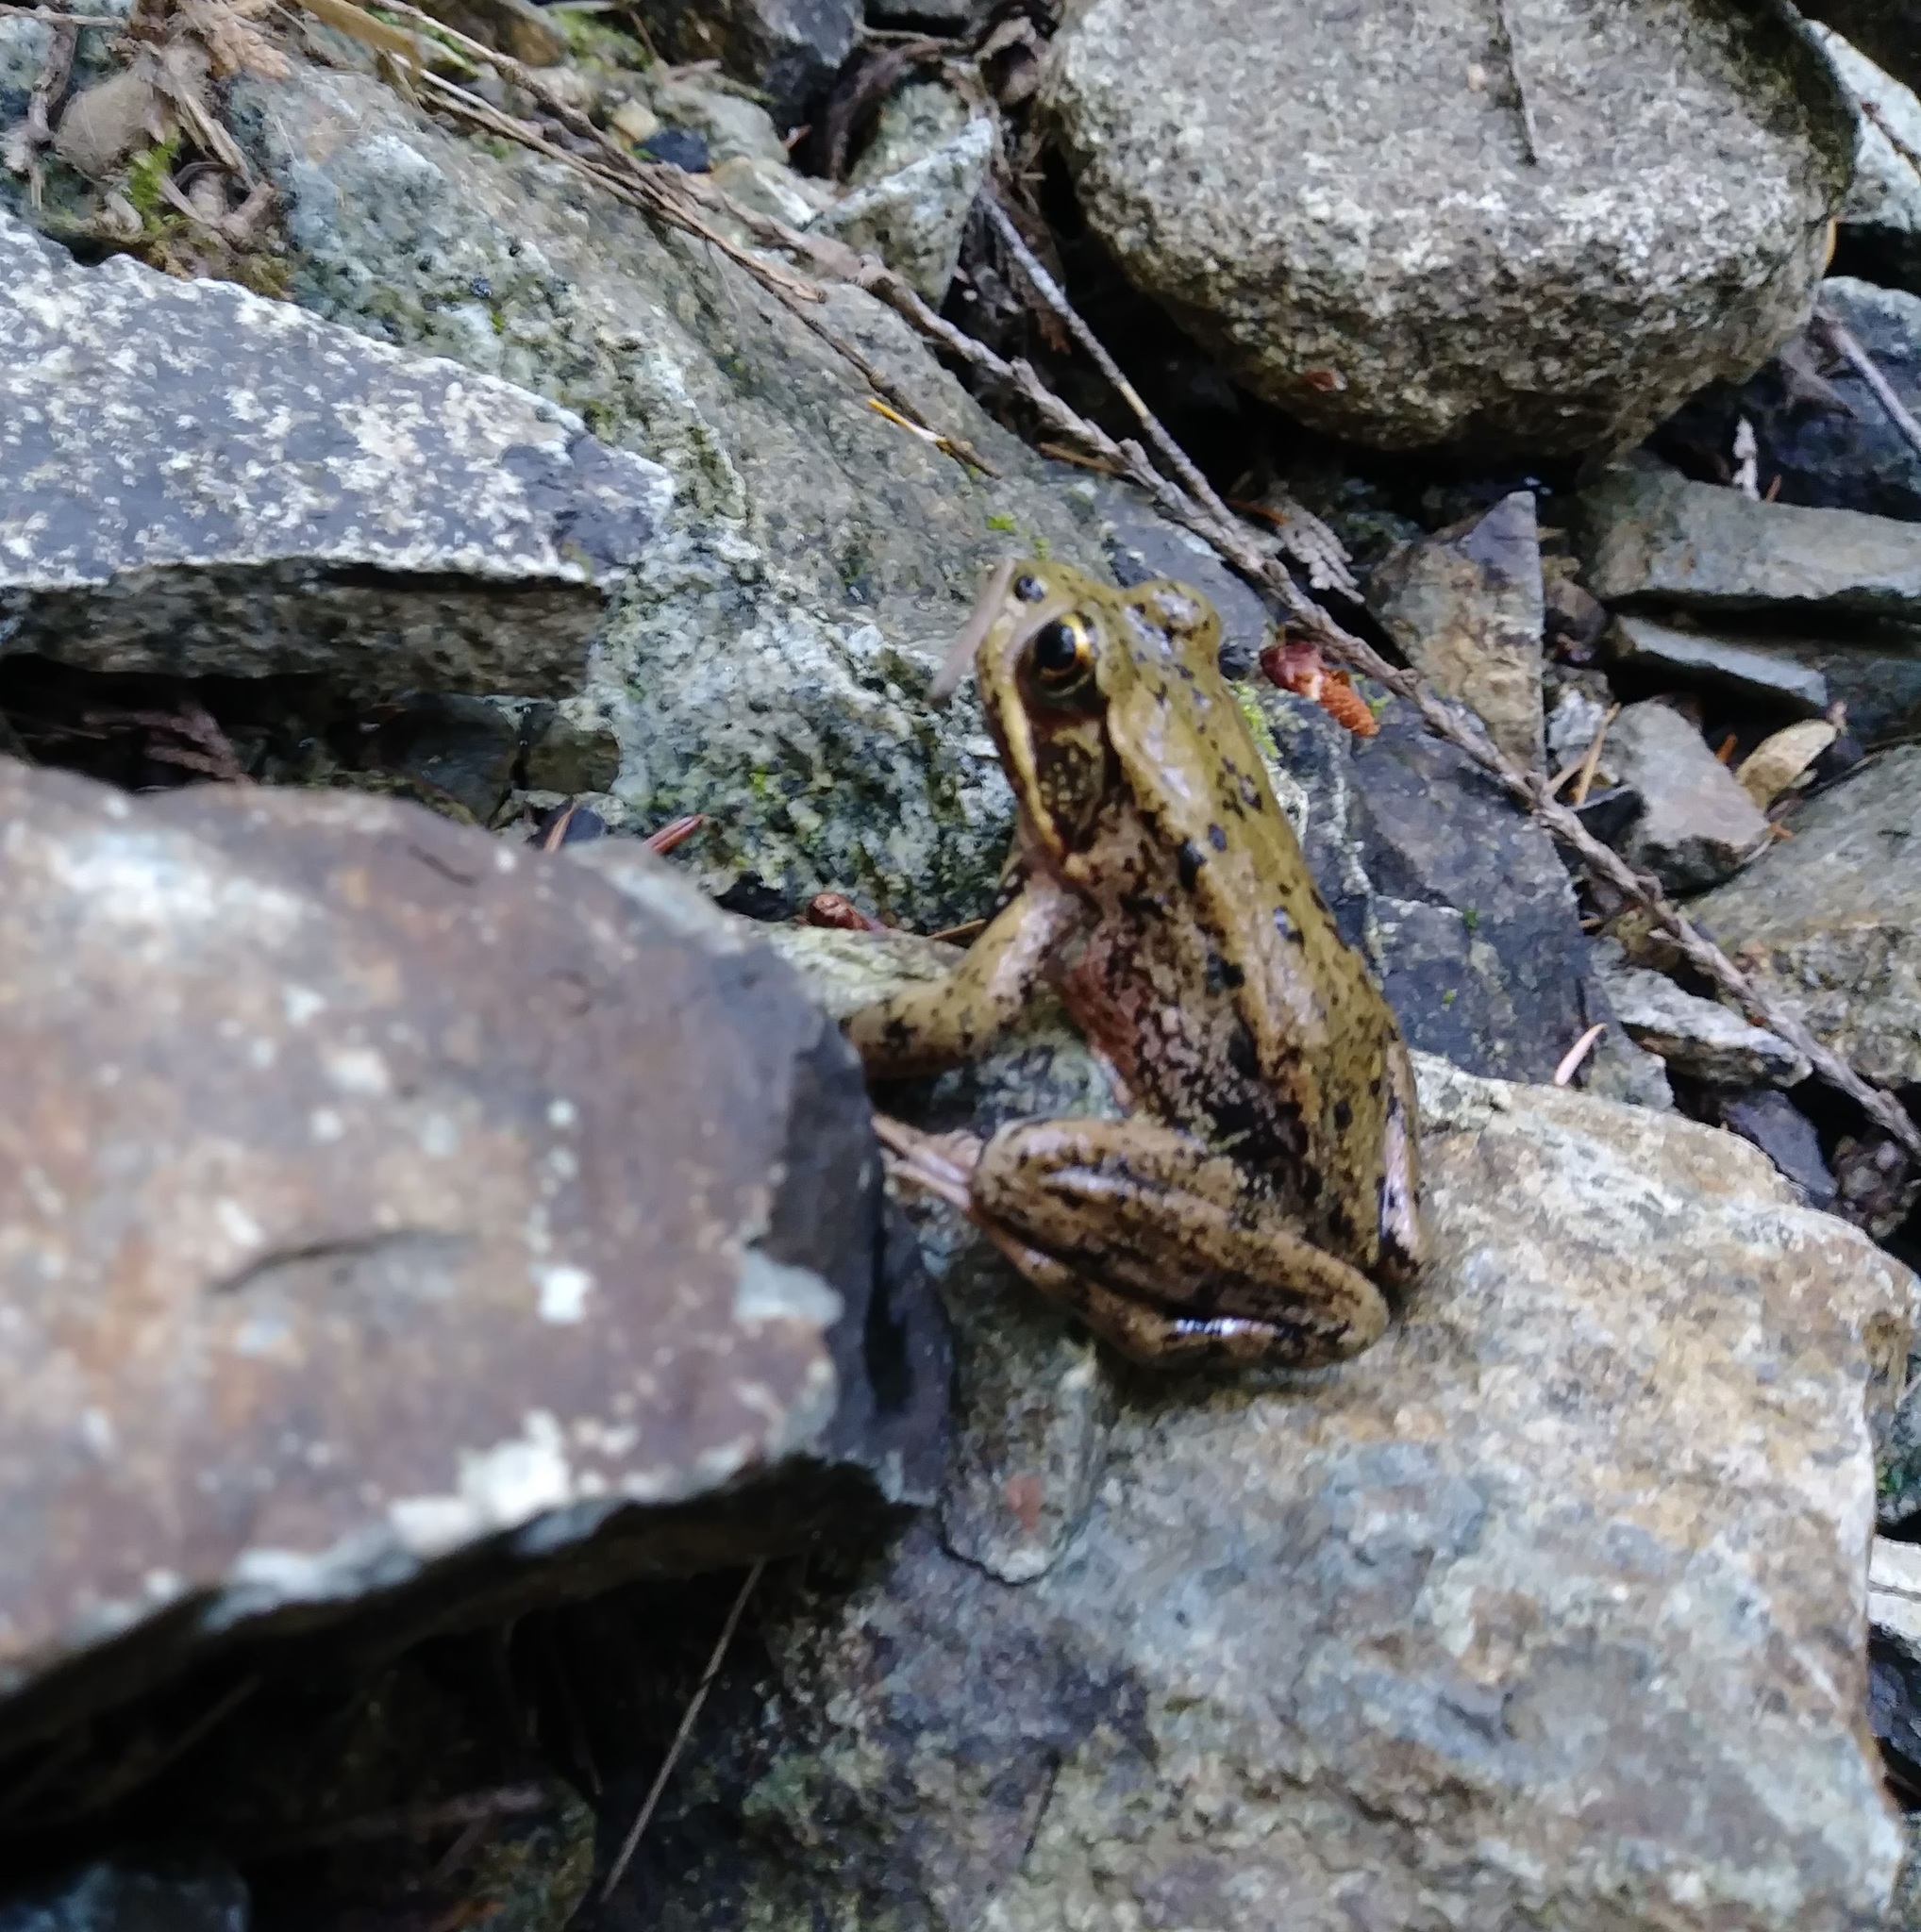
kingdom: Animalia
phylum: Chordata
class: Amphibia
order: Anura
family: Ranidae
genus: Rana
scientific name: Rana aurora
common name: Red-legged frog
